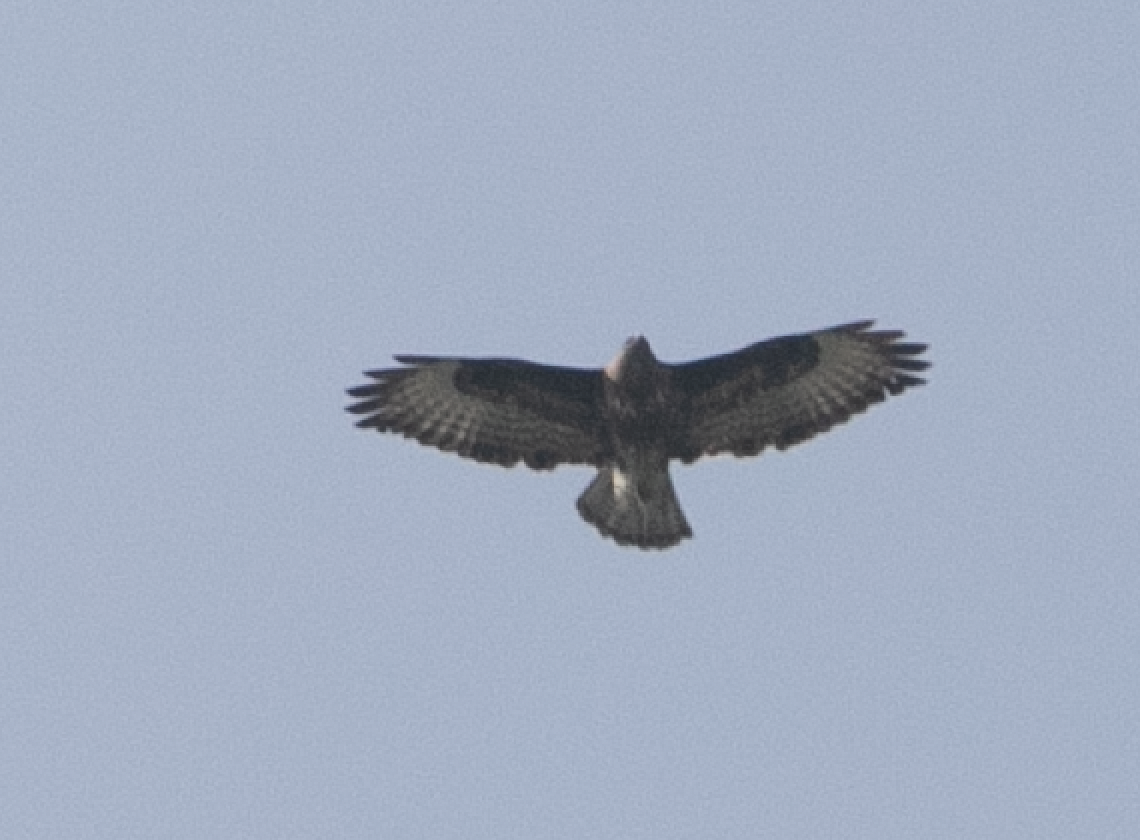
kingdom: Animalia
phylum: Chordata
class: Aves
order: Accipitriformes
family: Accipitridae
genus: Buteo
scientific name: Buteo buteo
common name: Common buzzard
